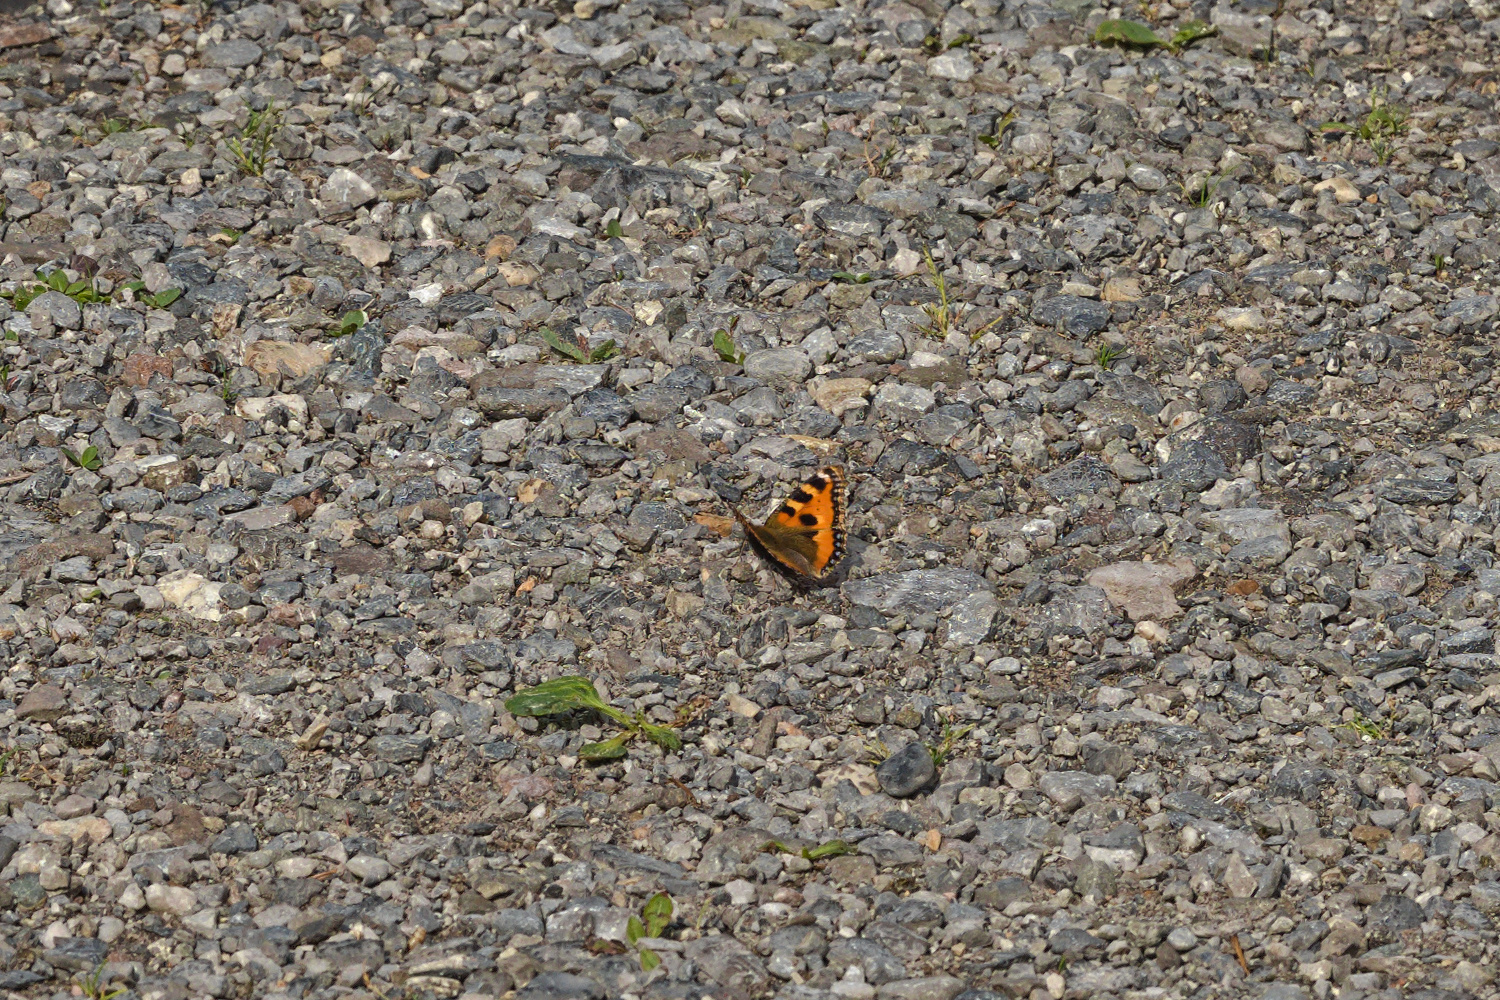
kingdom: Animalia
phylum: Arthropoda
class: Insecta
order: Lepidoptera
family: Nymphalidae
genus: Aglais
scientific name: Aglais urticae
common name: Small tortoiseshell
